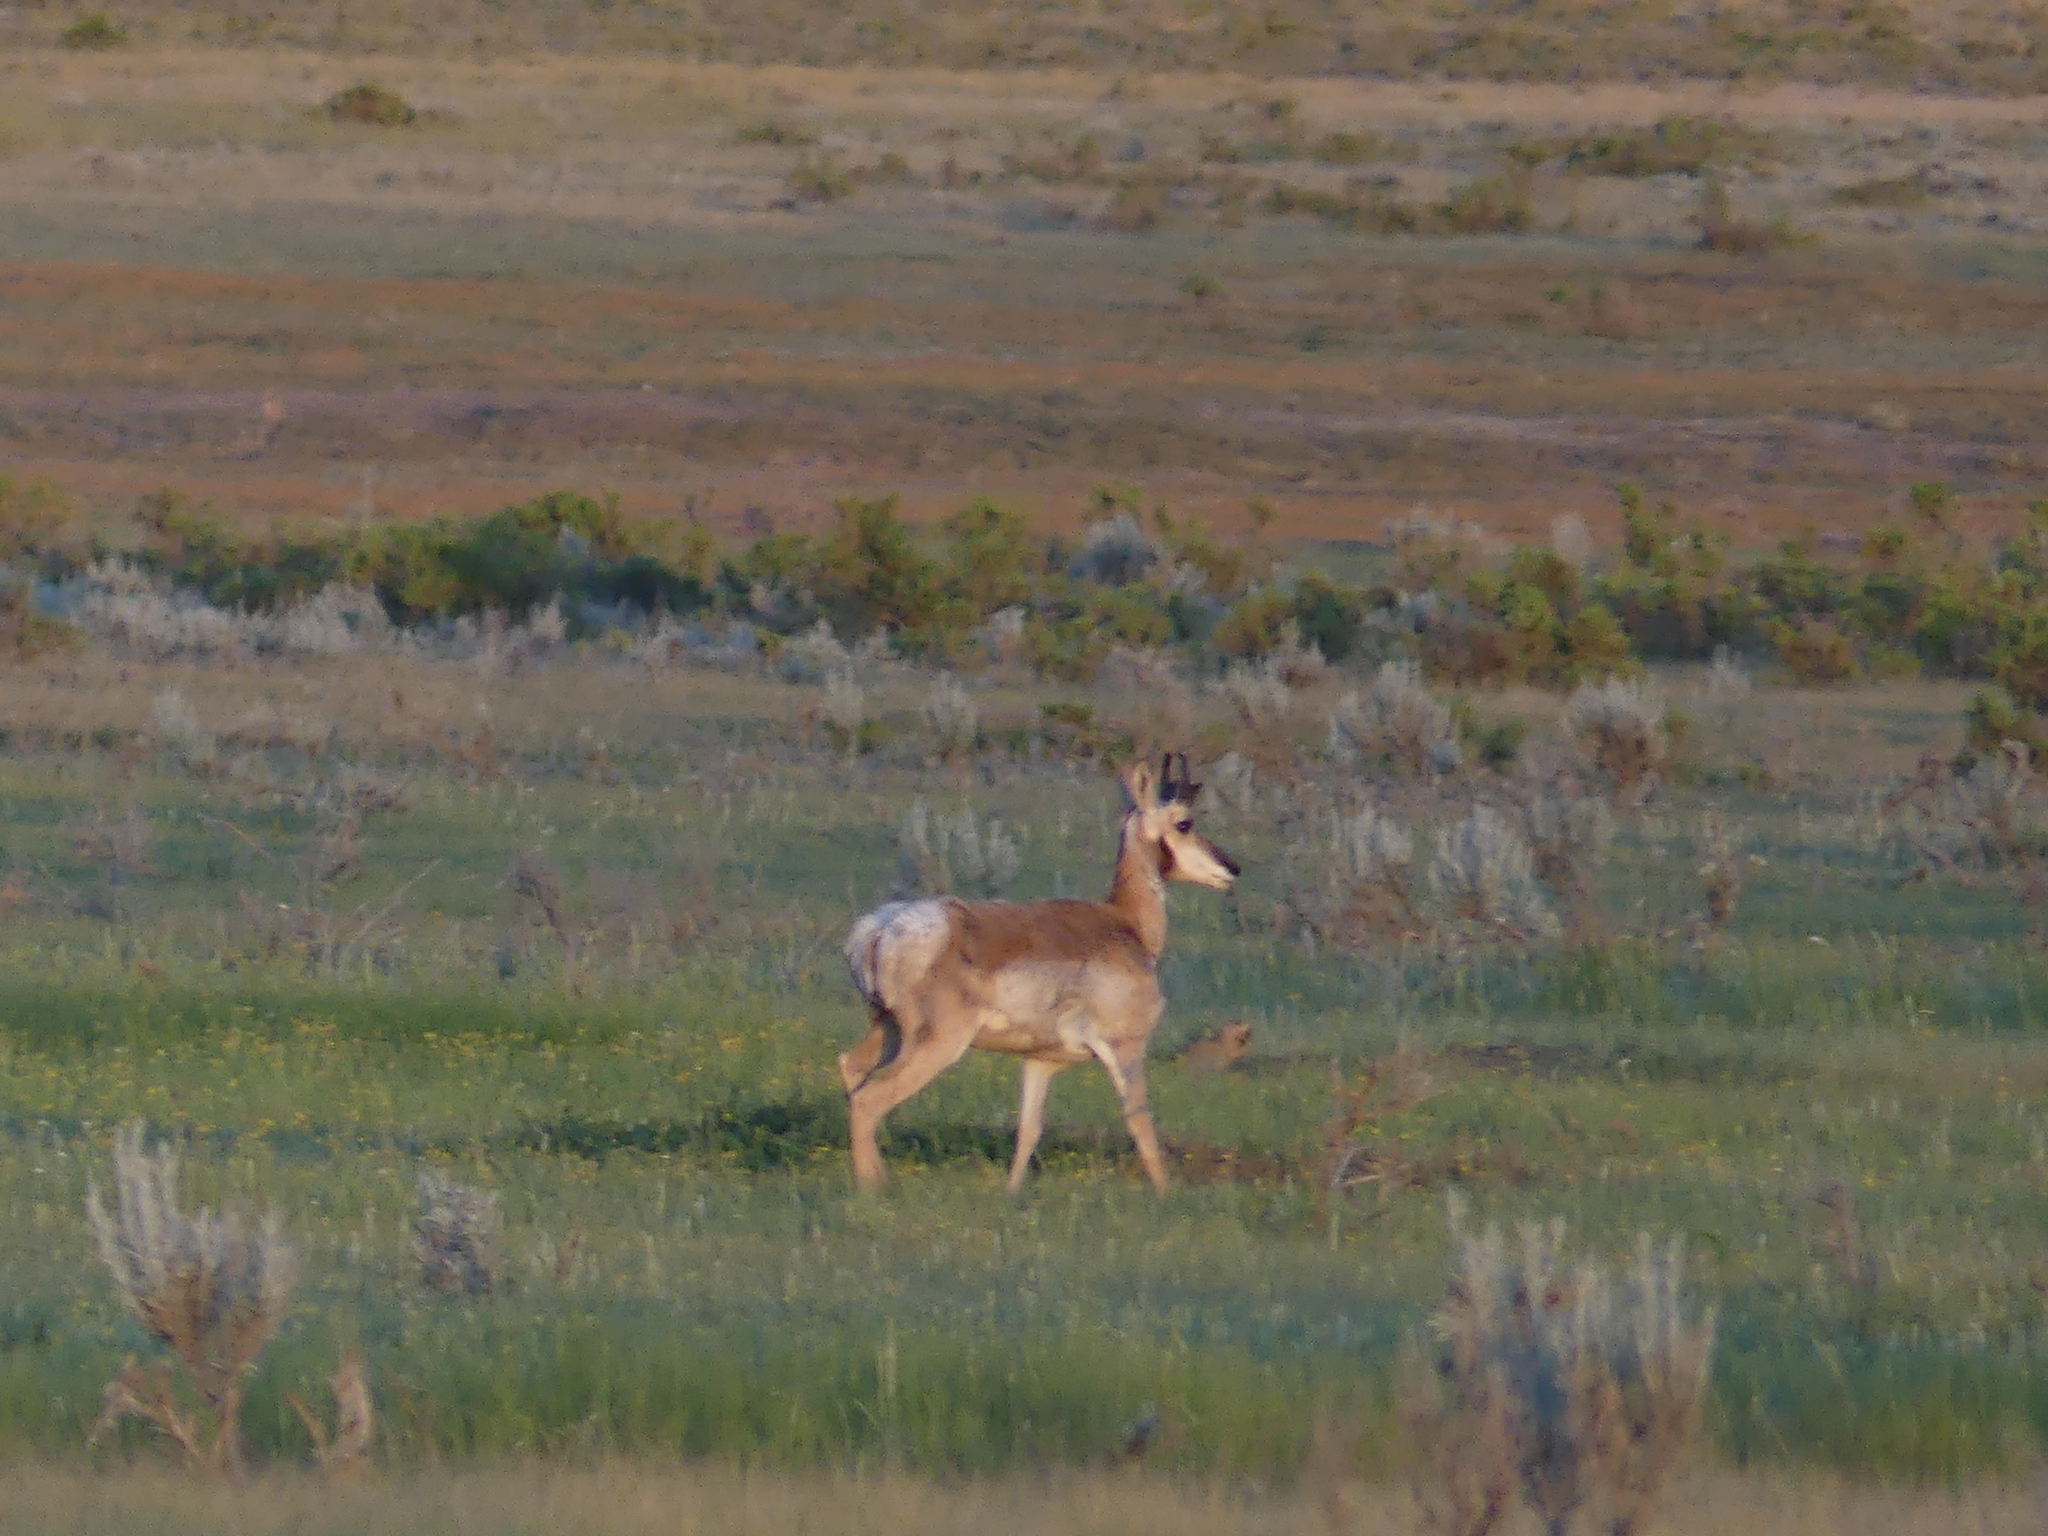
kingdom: Animalia
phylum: Chordata
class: Mammalia
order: Artiodactyla
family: Antilocapridae
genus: Antilocapra
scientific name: Antilocapra americana
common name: Pronghorn
